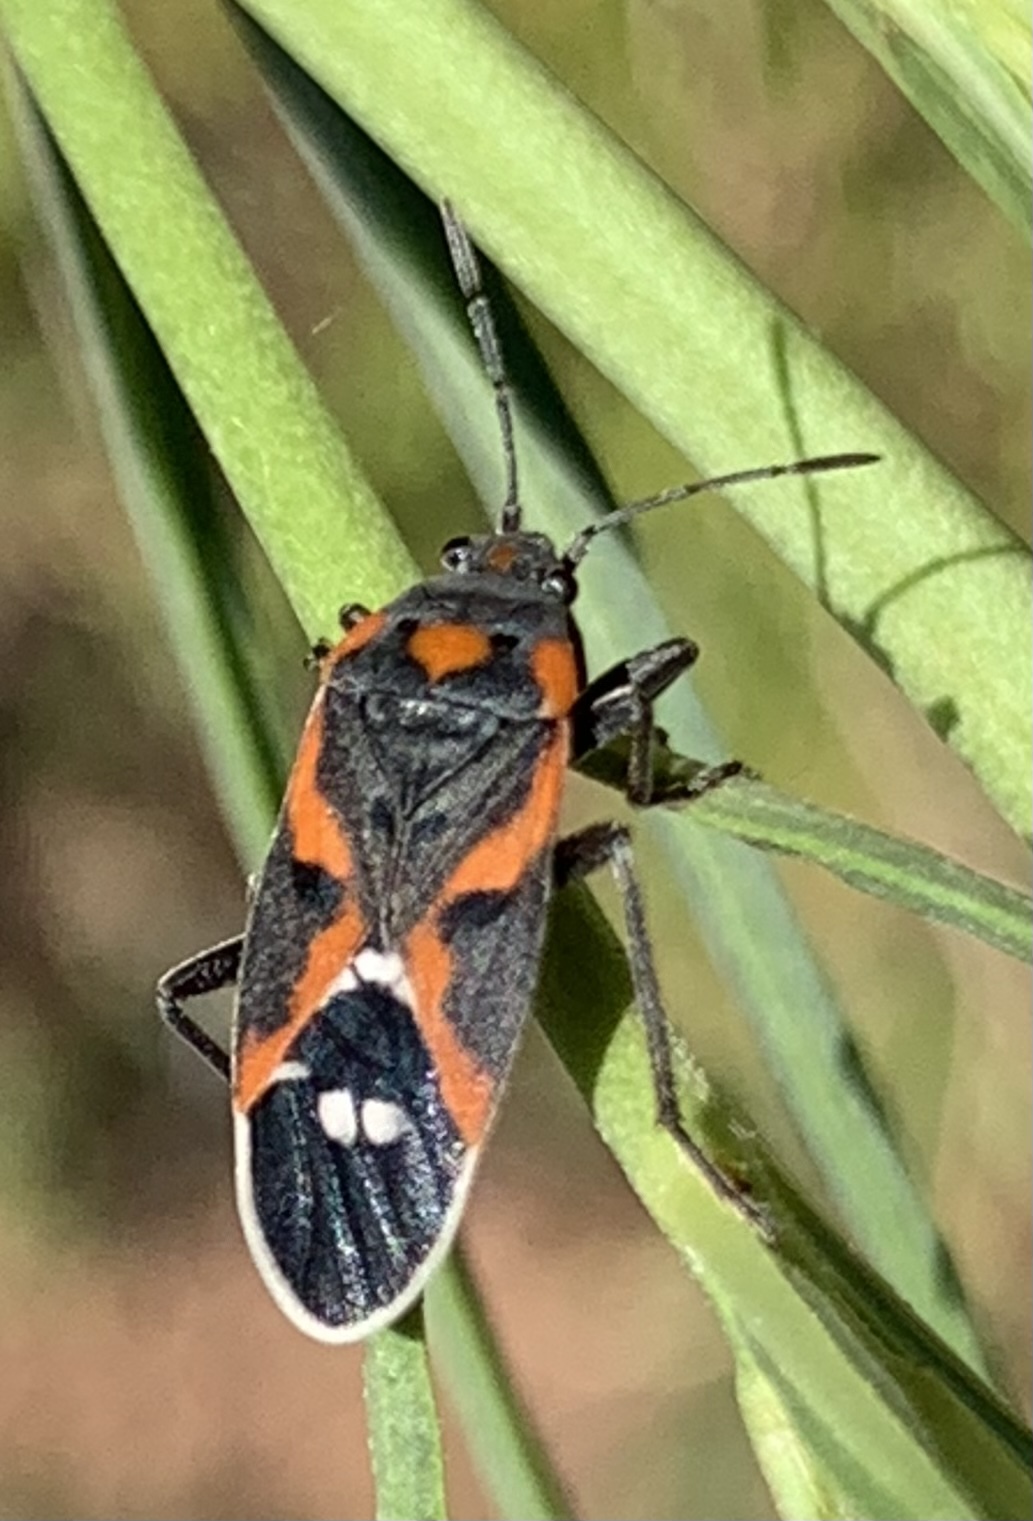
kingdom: Animalia
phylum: Arthropoda
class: Insecta
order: Hemiptera
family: Lygaeidae
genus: Lygaeus
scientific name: Lygaeus kalmii
